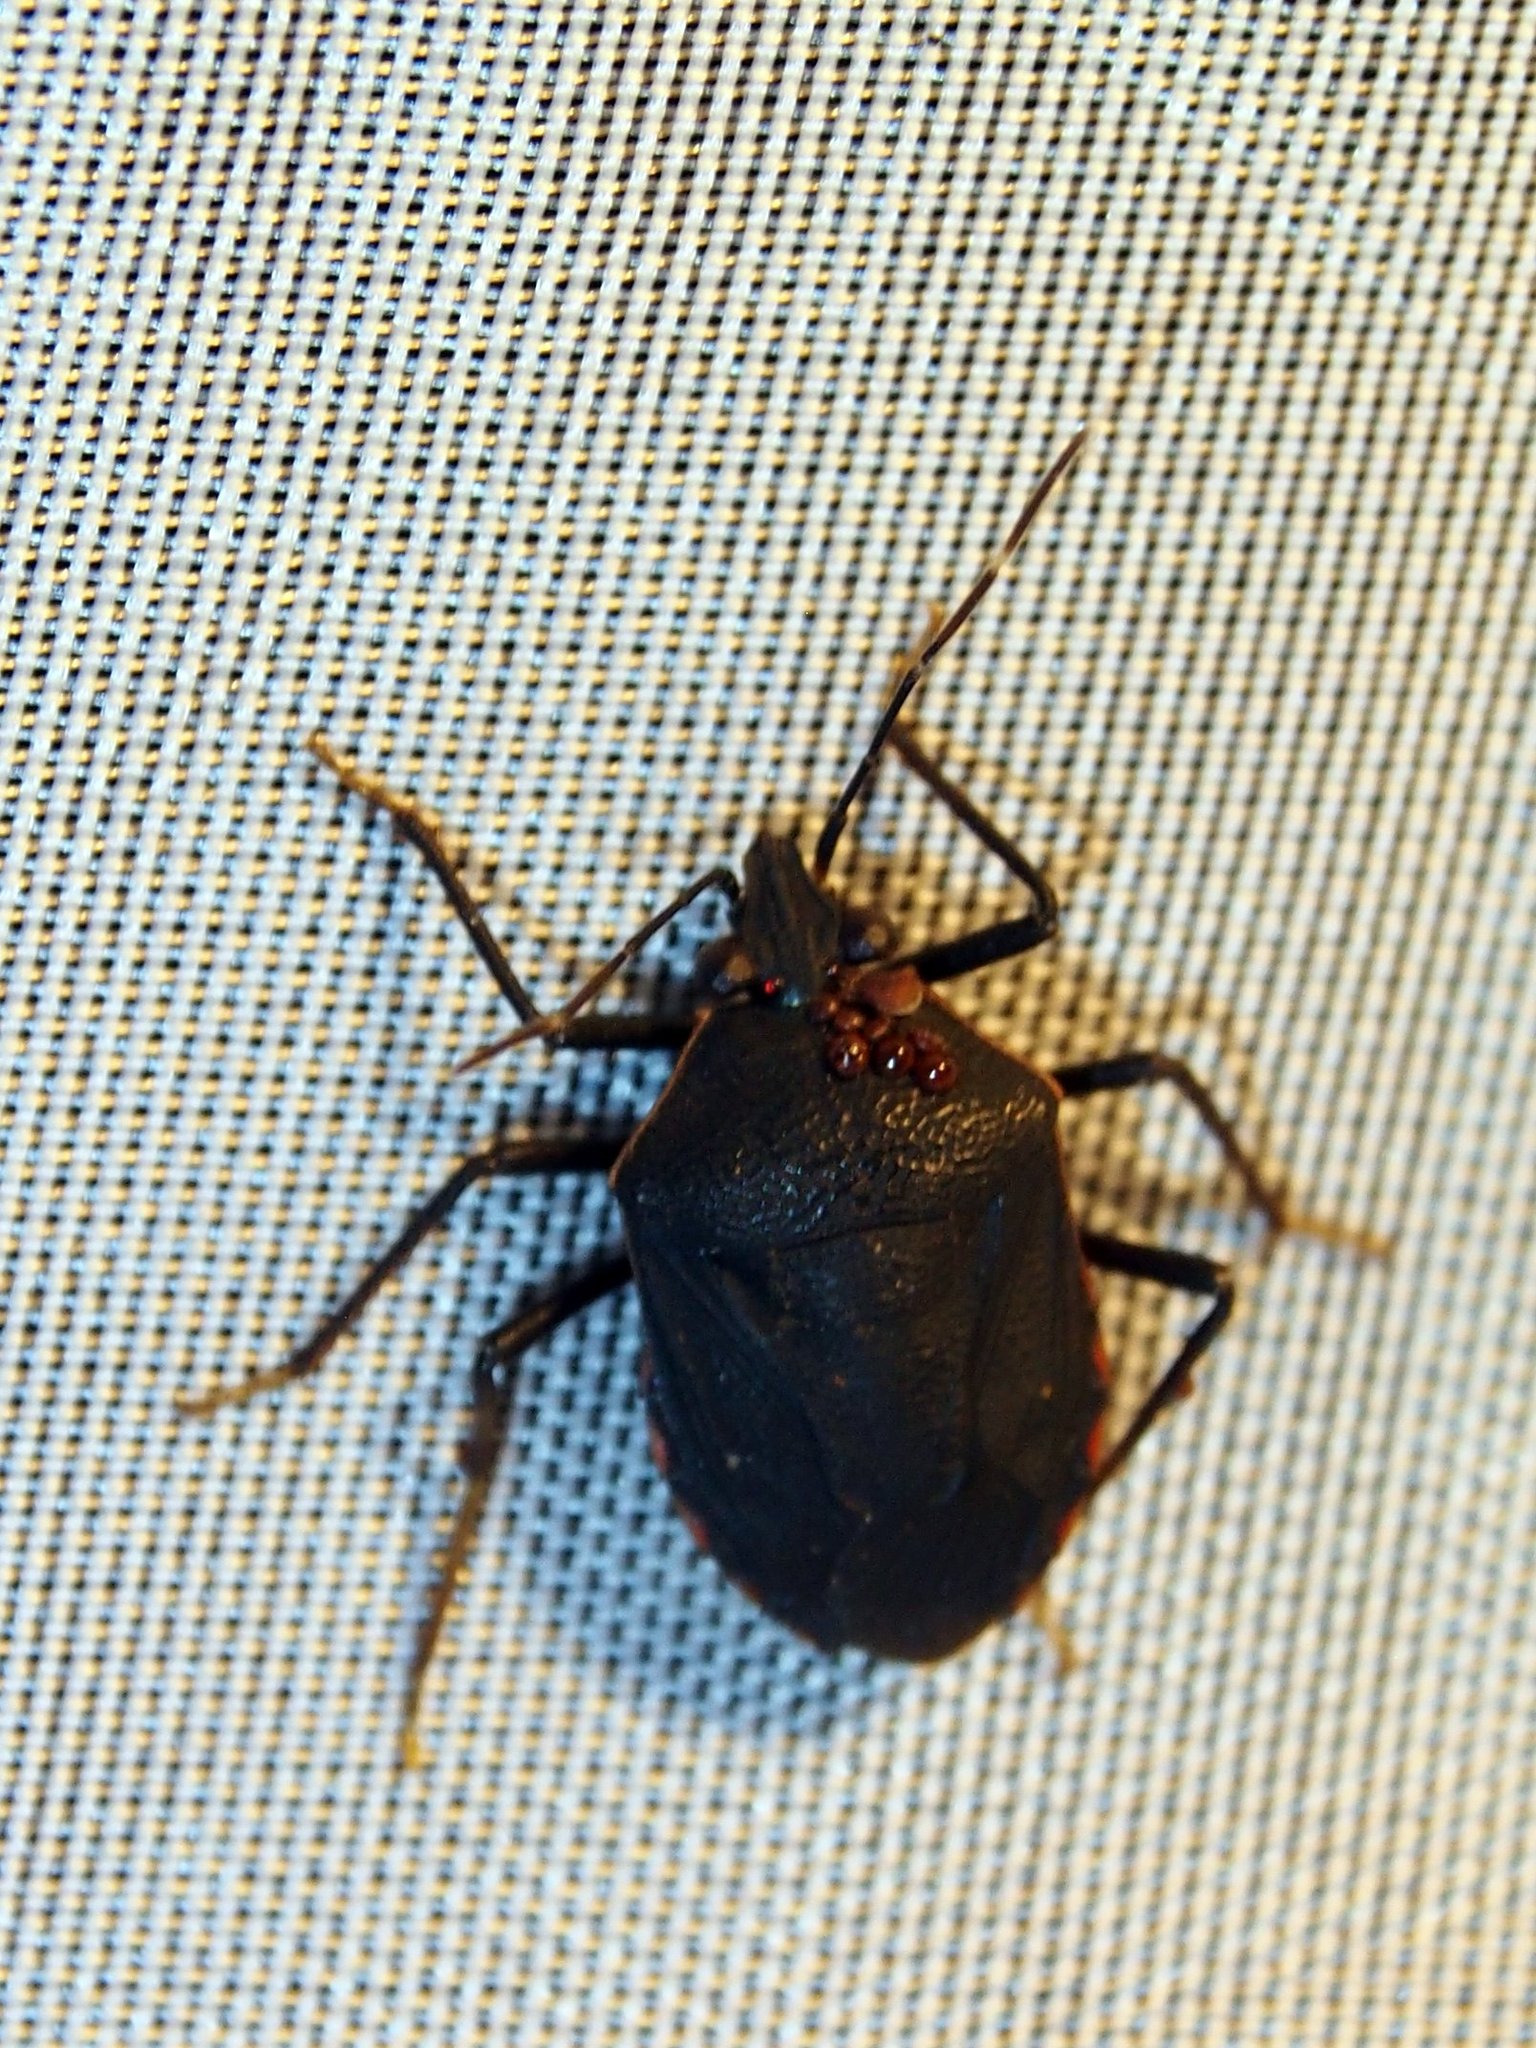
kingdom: Animalia
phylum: Arthropoda
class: Insecta
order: Hemiptera
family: Pentatomidae
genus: Schraderiellus
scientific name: Schraderiellus cinctus
